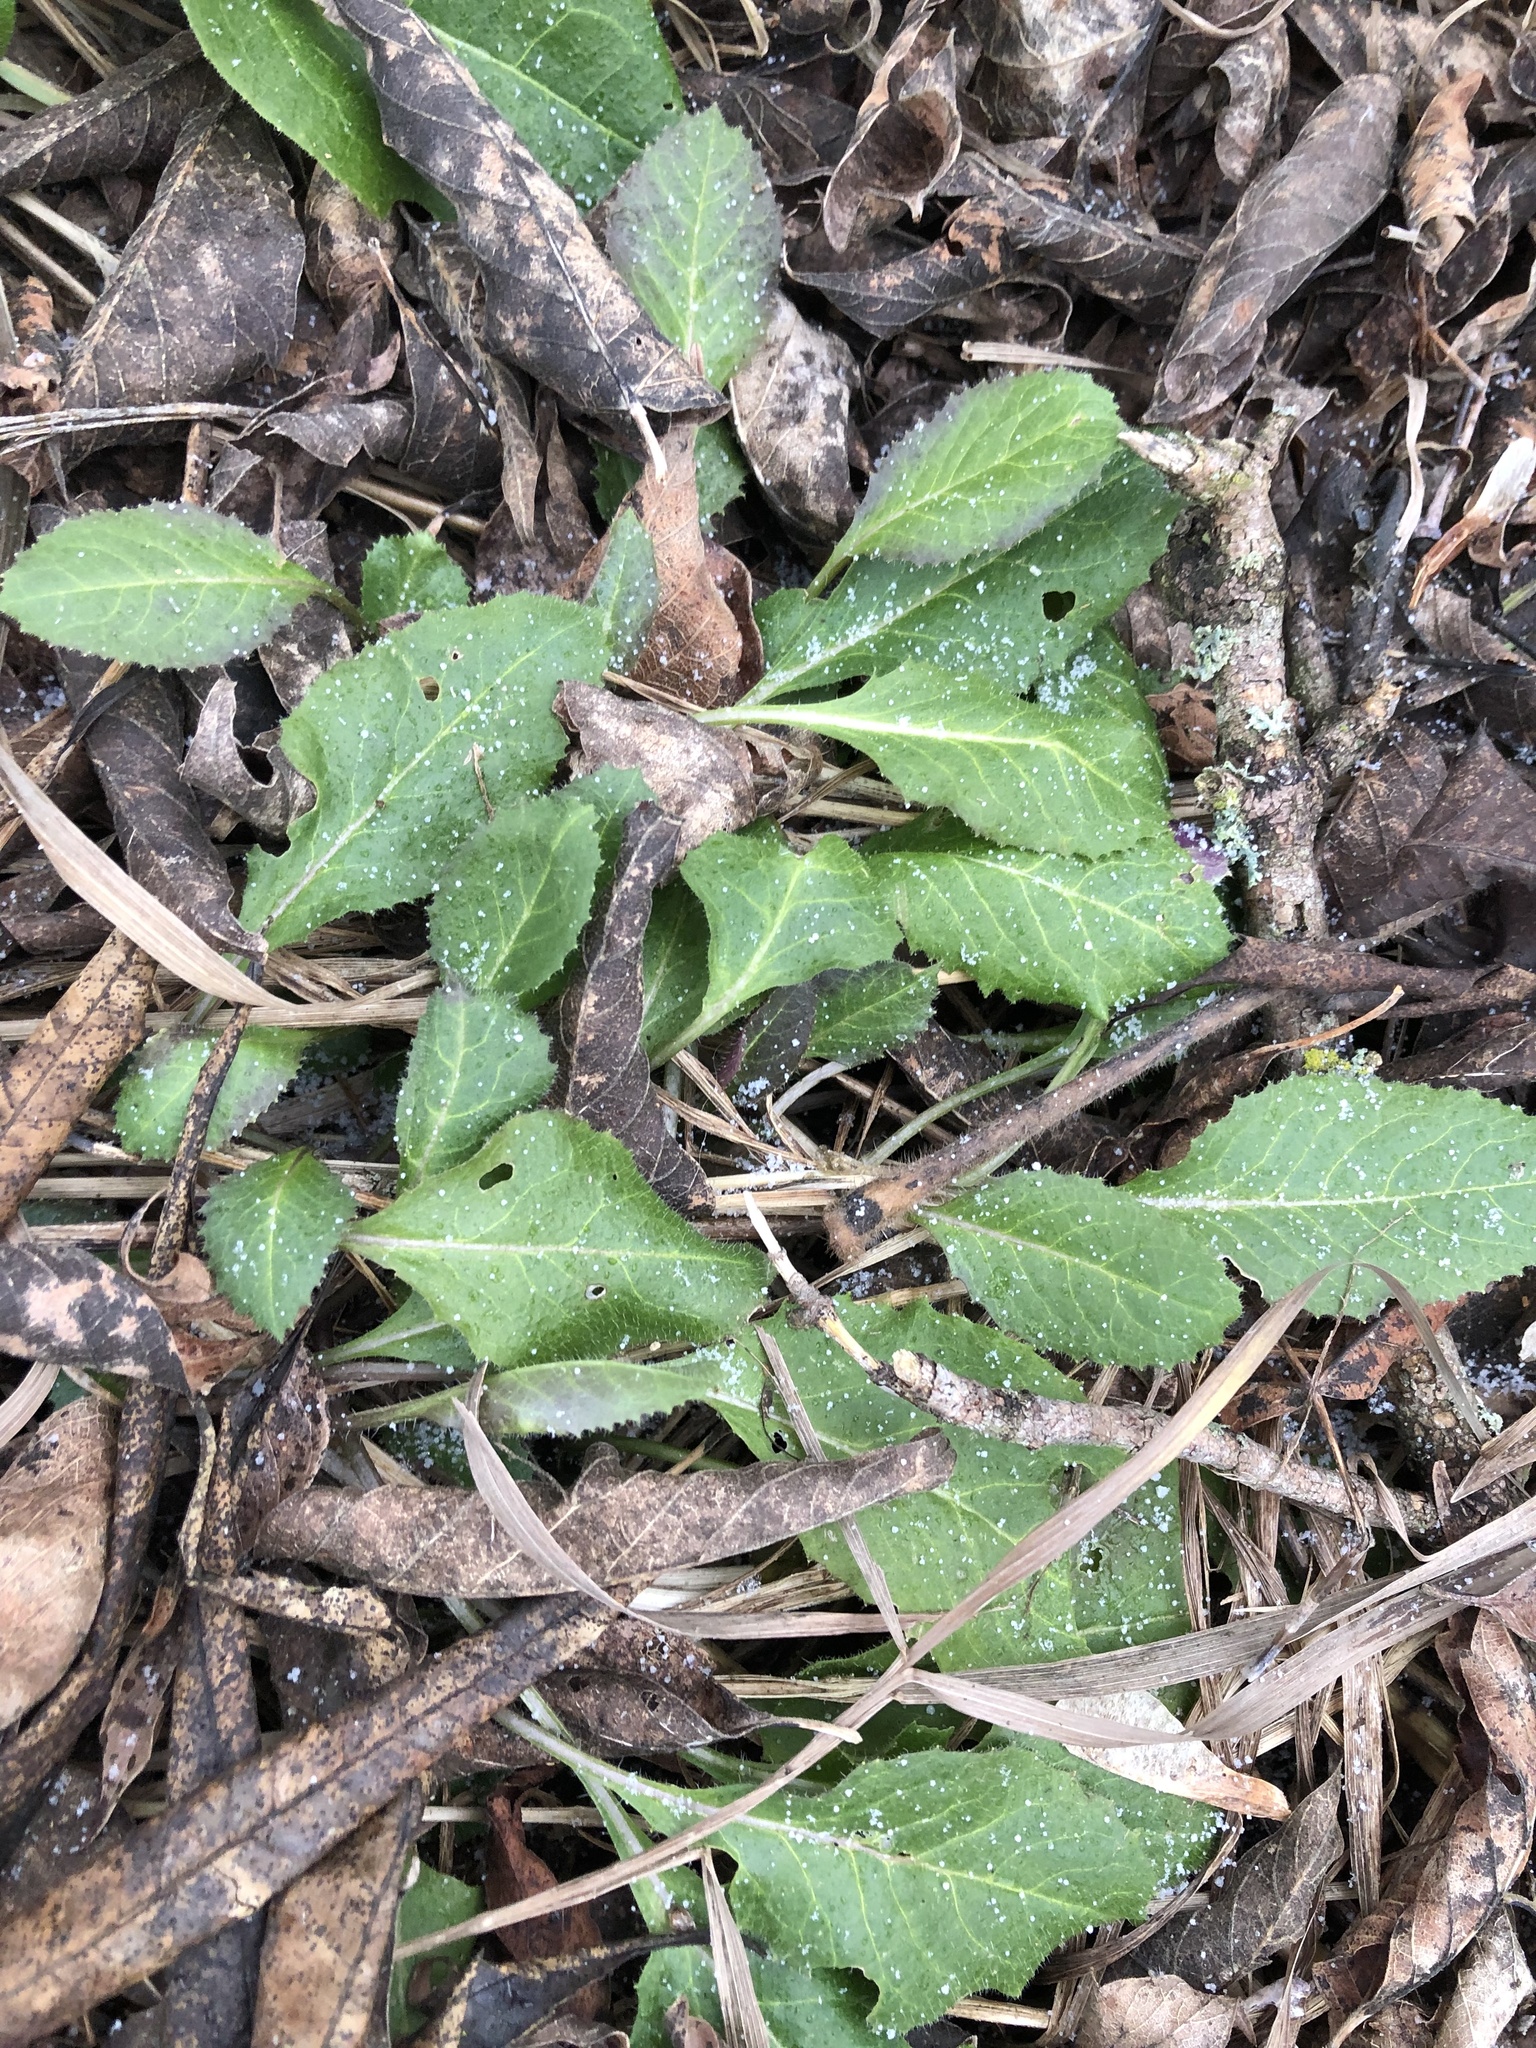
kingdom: Plantae
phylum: Tracheophyta
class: Magnoliopsida
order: Brassicales
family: Brassicaceae
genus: Hesperis
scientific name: Hesperis matronalis
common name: Dame's-violet
